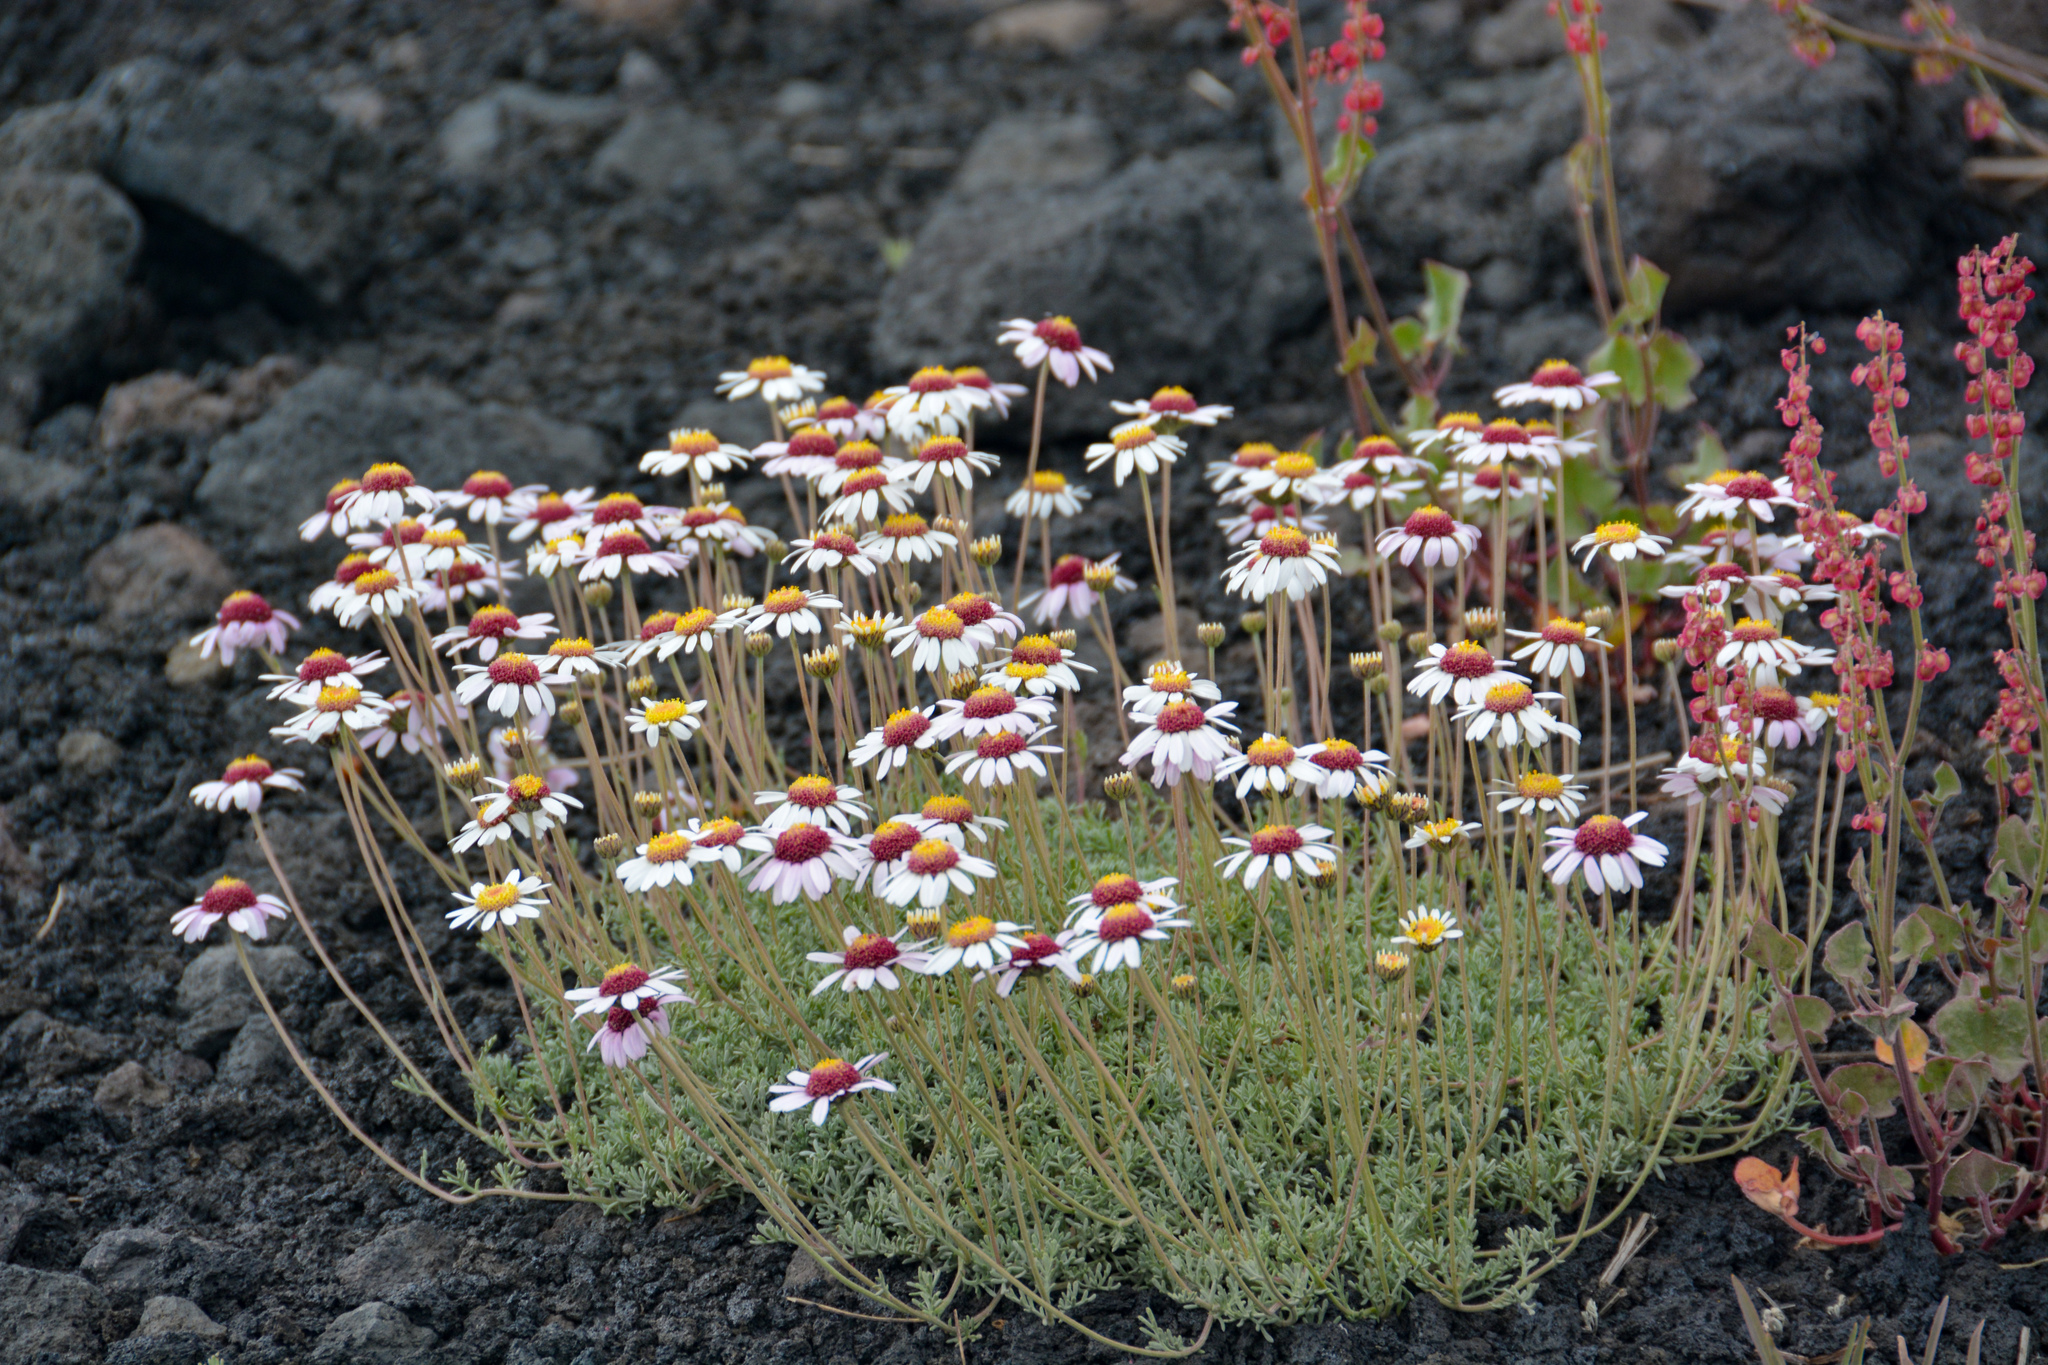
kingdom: Plantae
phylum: Tracheophyta
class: Magnoliopsida
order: Asterales
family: Asteraceae
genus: Anthemis
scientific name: Anthemis aetnensis
